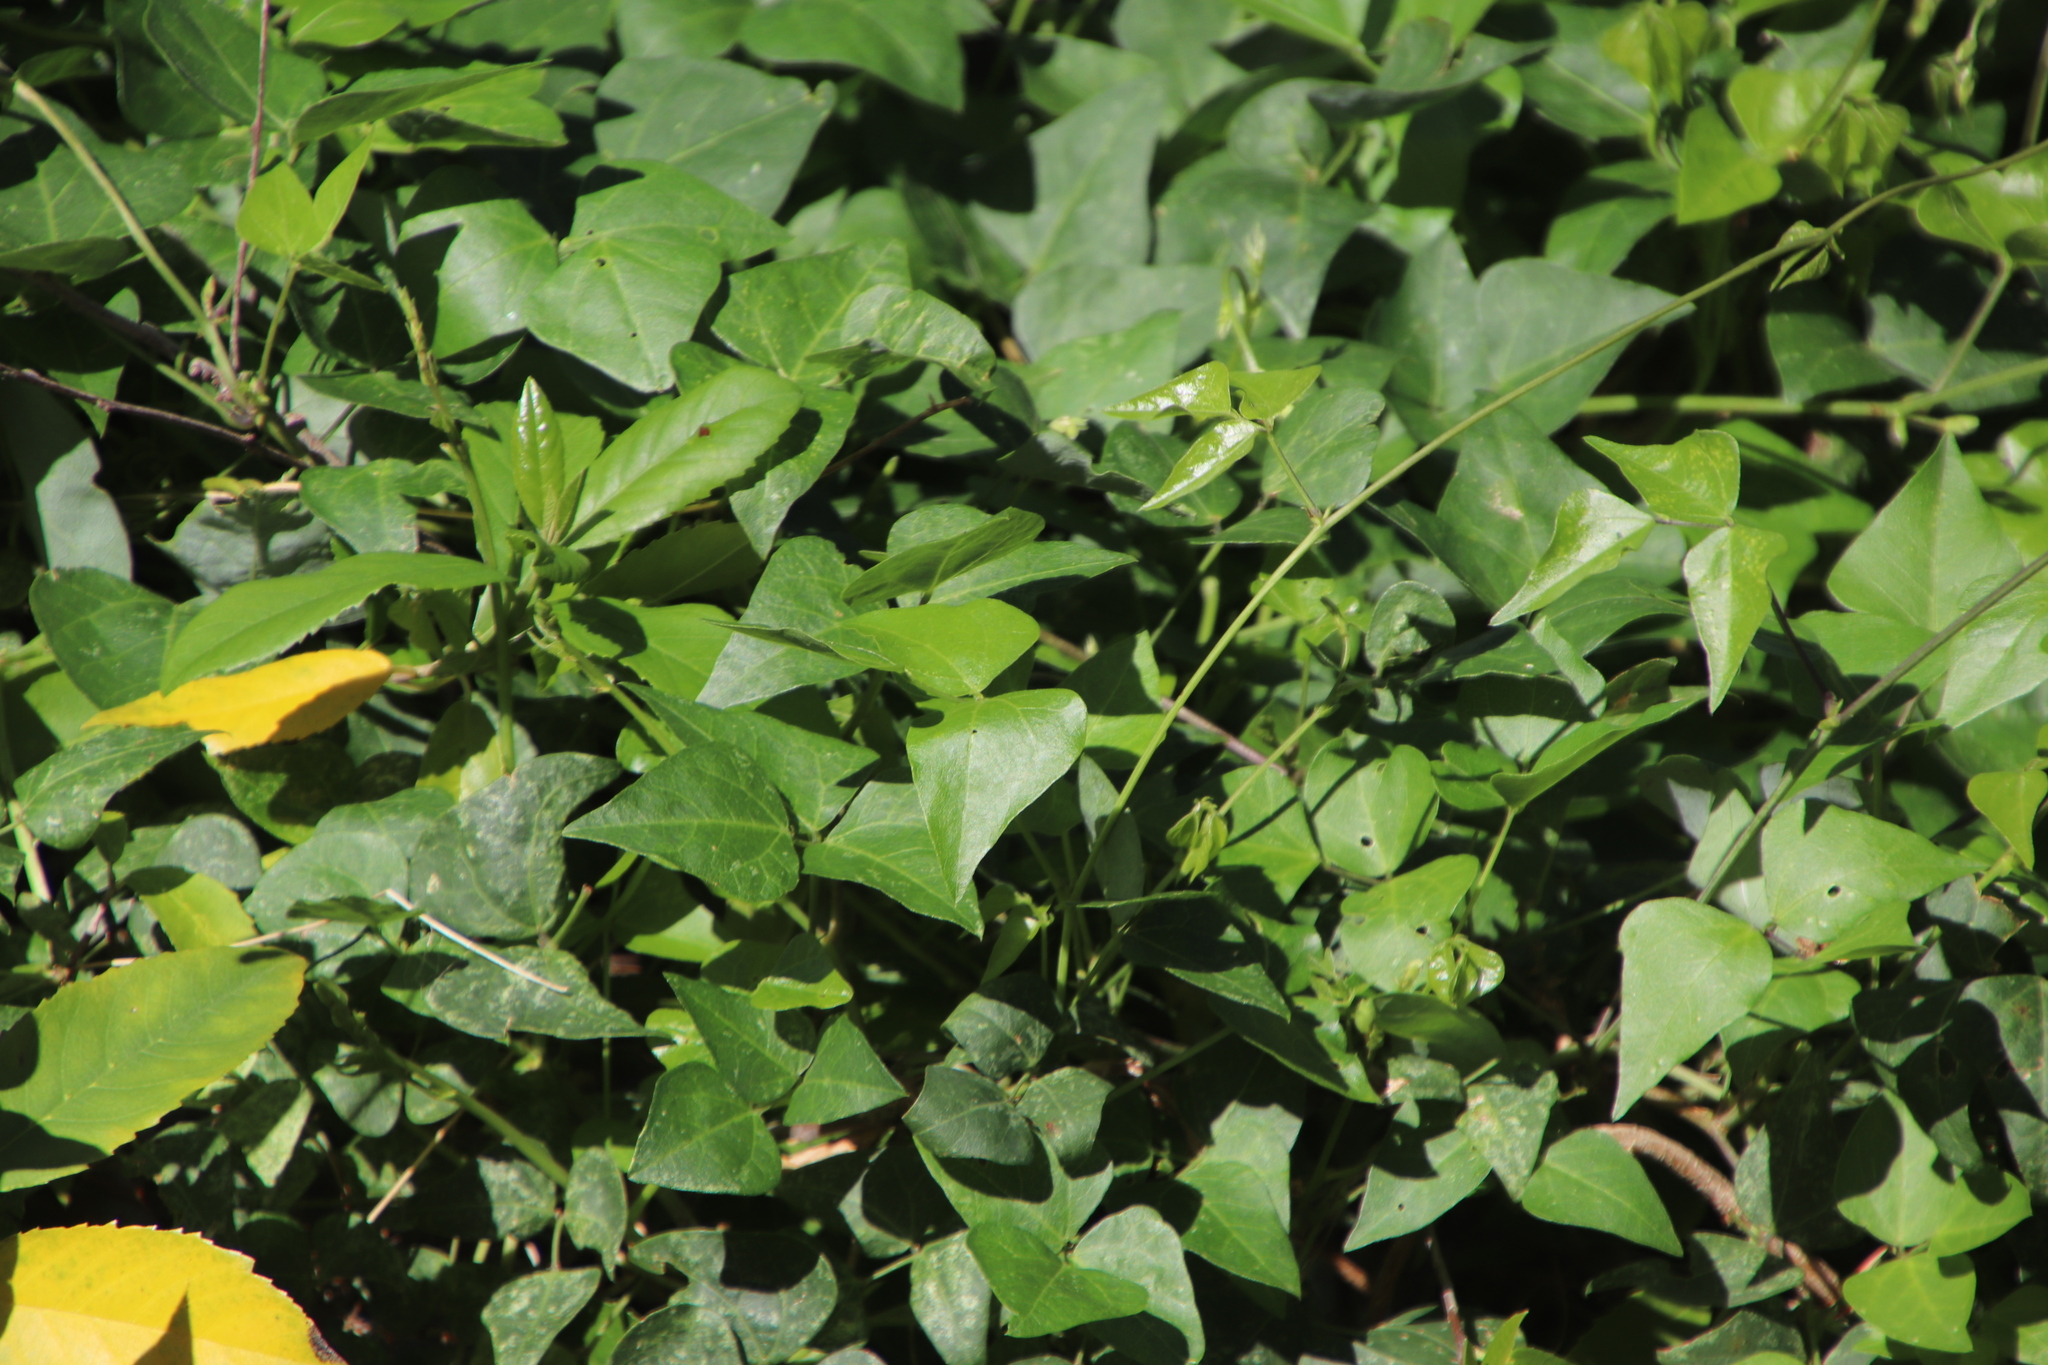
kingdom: Plantae
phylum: Tracheophyta
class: Magnoliopsida
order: Fabales
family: Fabaceae
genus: Dipogon
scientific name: Dipogon lignosus
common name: Okie bean
